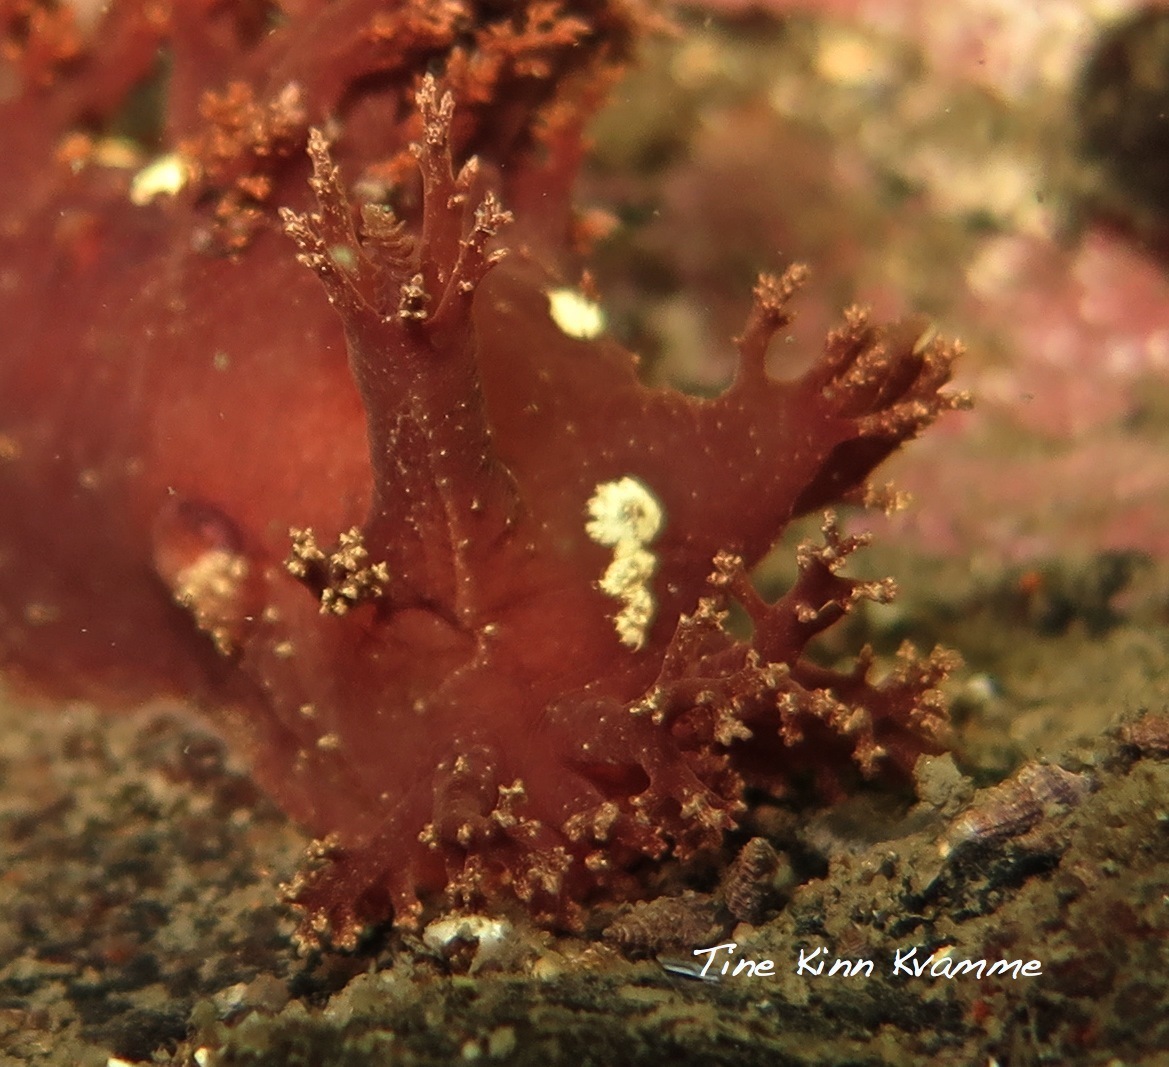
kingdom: Animalia
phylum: Mollusca
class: Gastropoda
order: Nudibranchia
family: Dendronotidae
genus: Dendronotus
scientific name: Dendronotus frondosus
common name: Bushy-backed nudibranch
